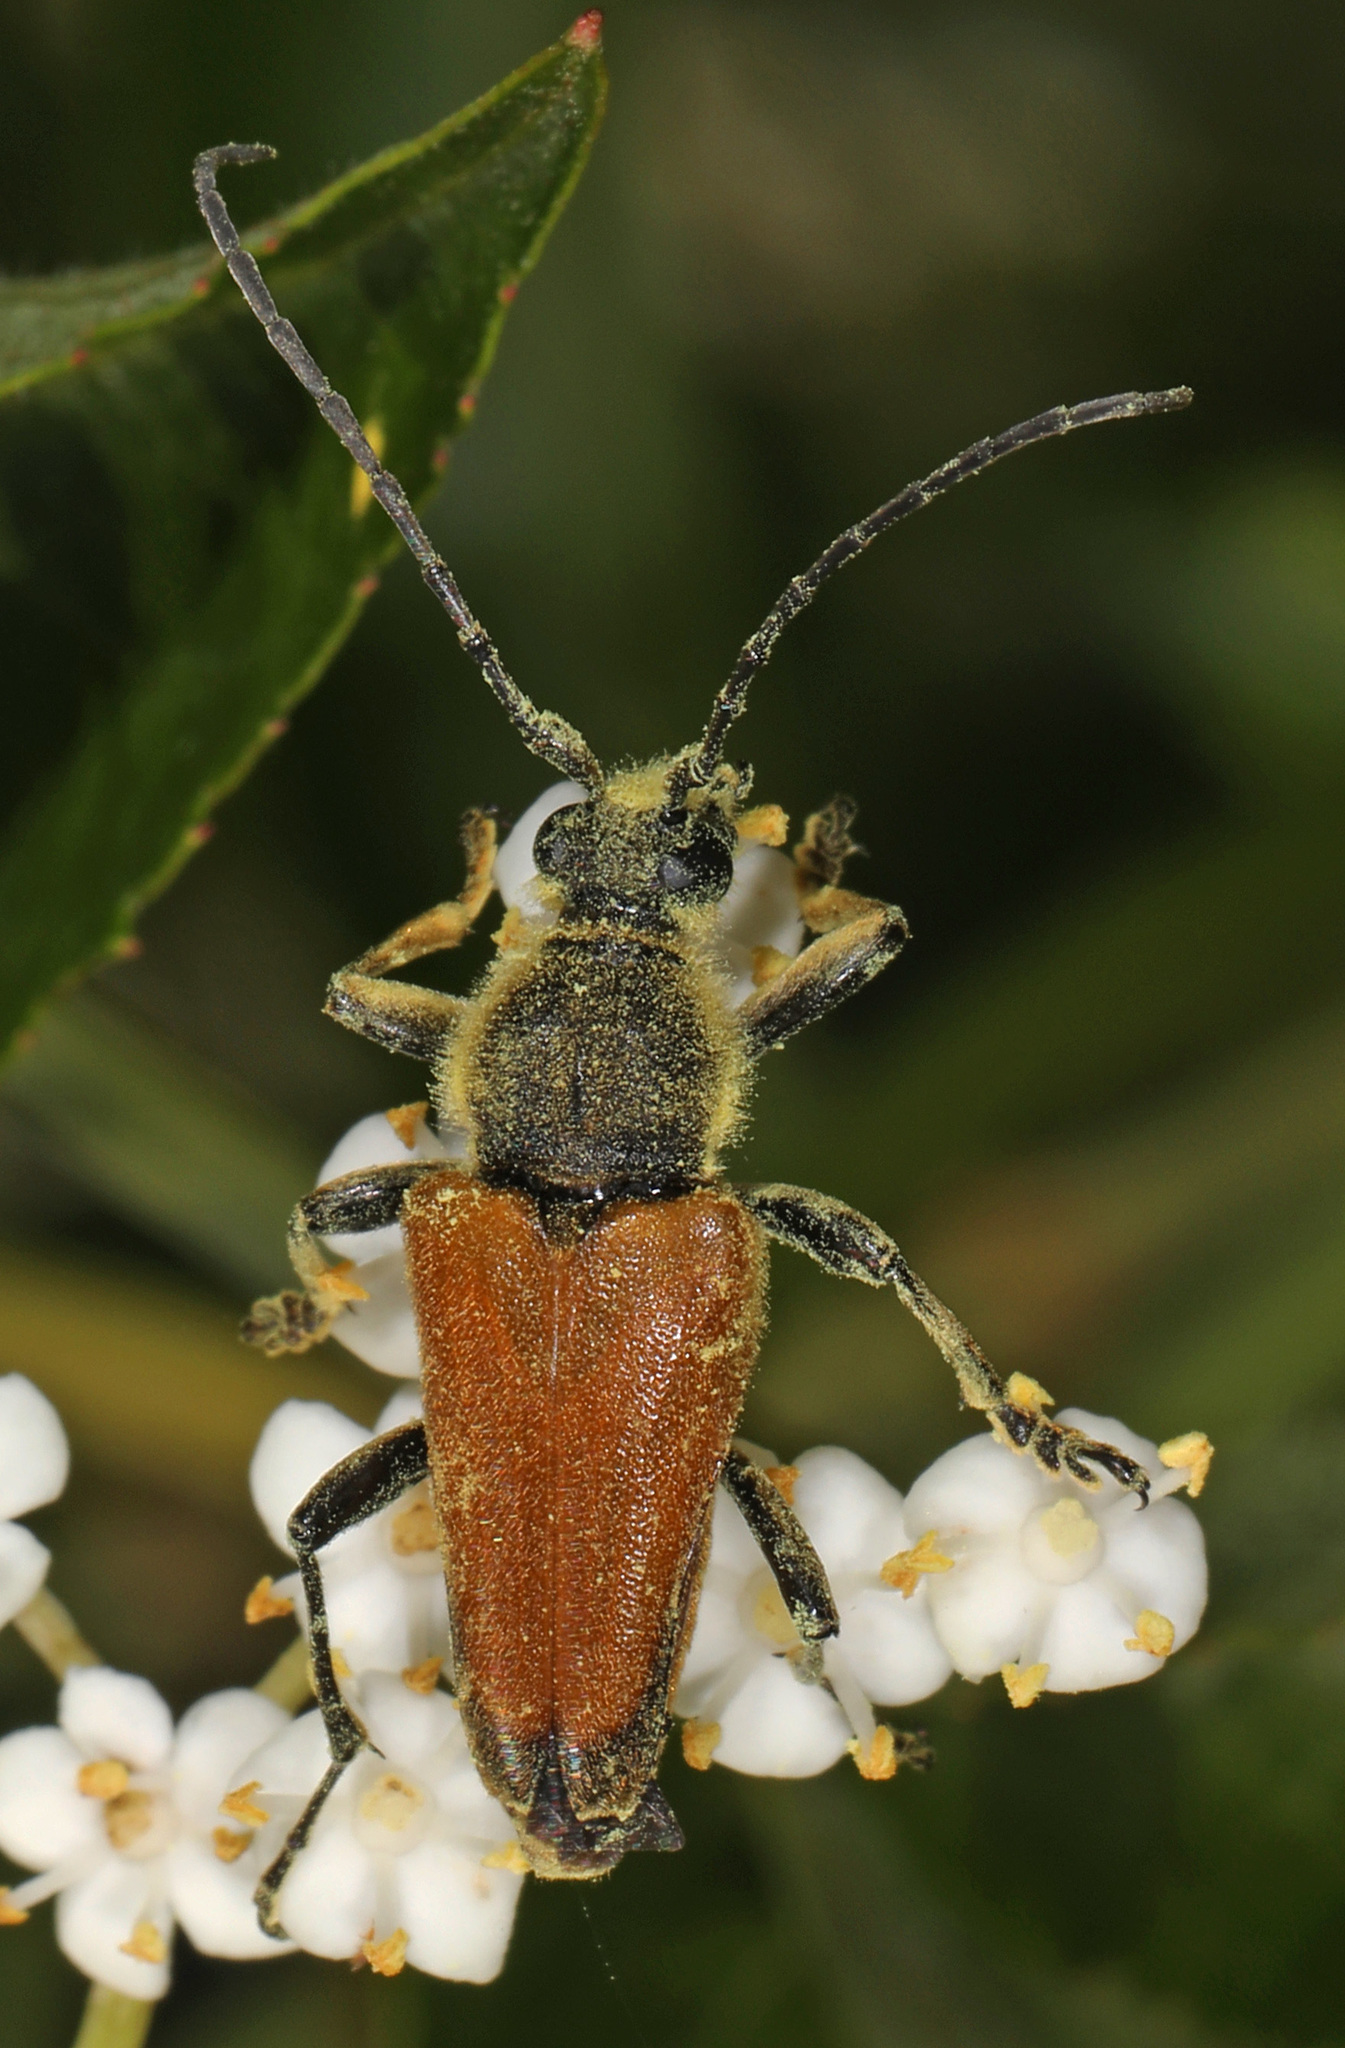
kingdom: Animalia
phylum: Arthropoda
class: Insecta
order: Coleoptera
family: Cerambycidae
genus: Brachyleptura
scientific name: Brachyleptura rubrica
